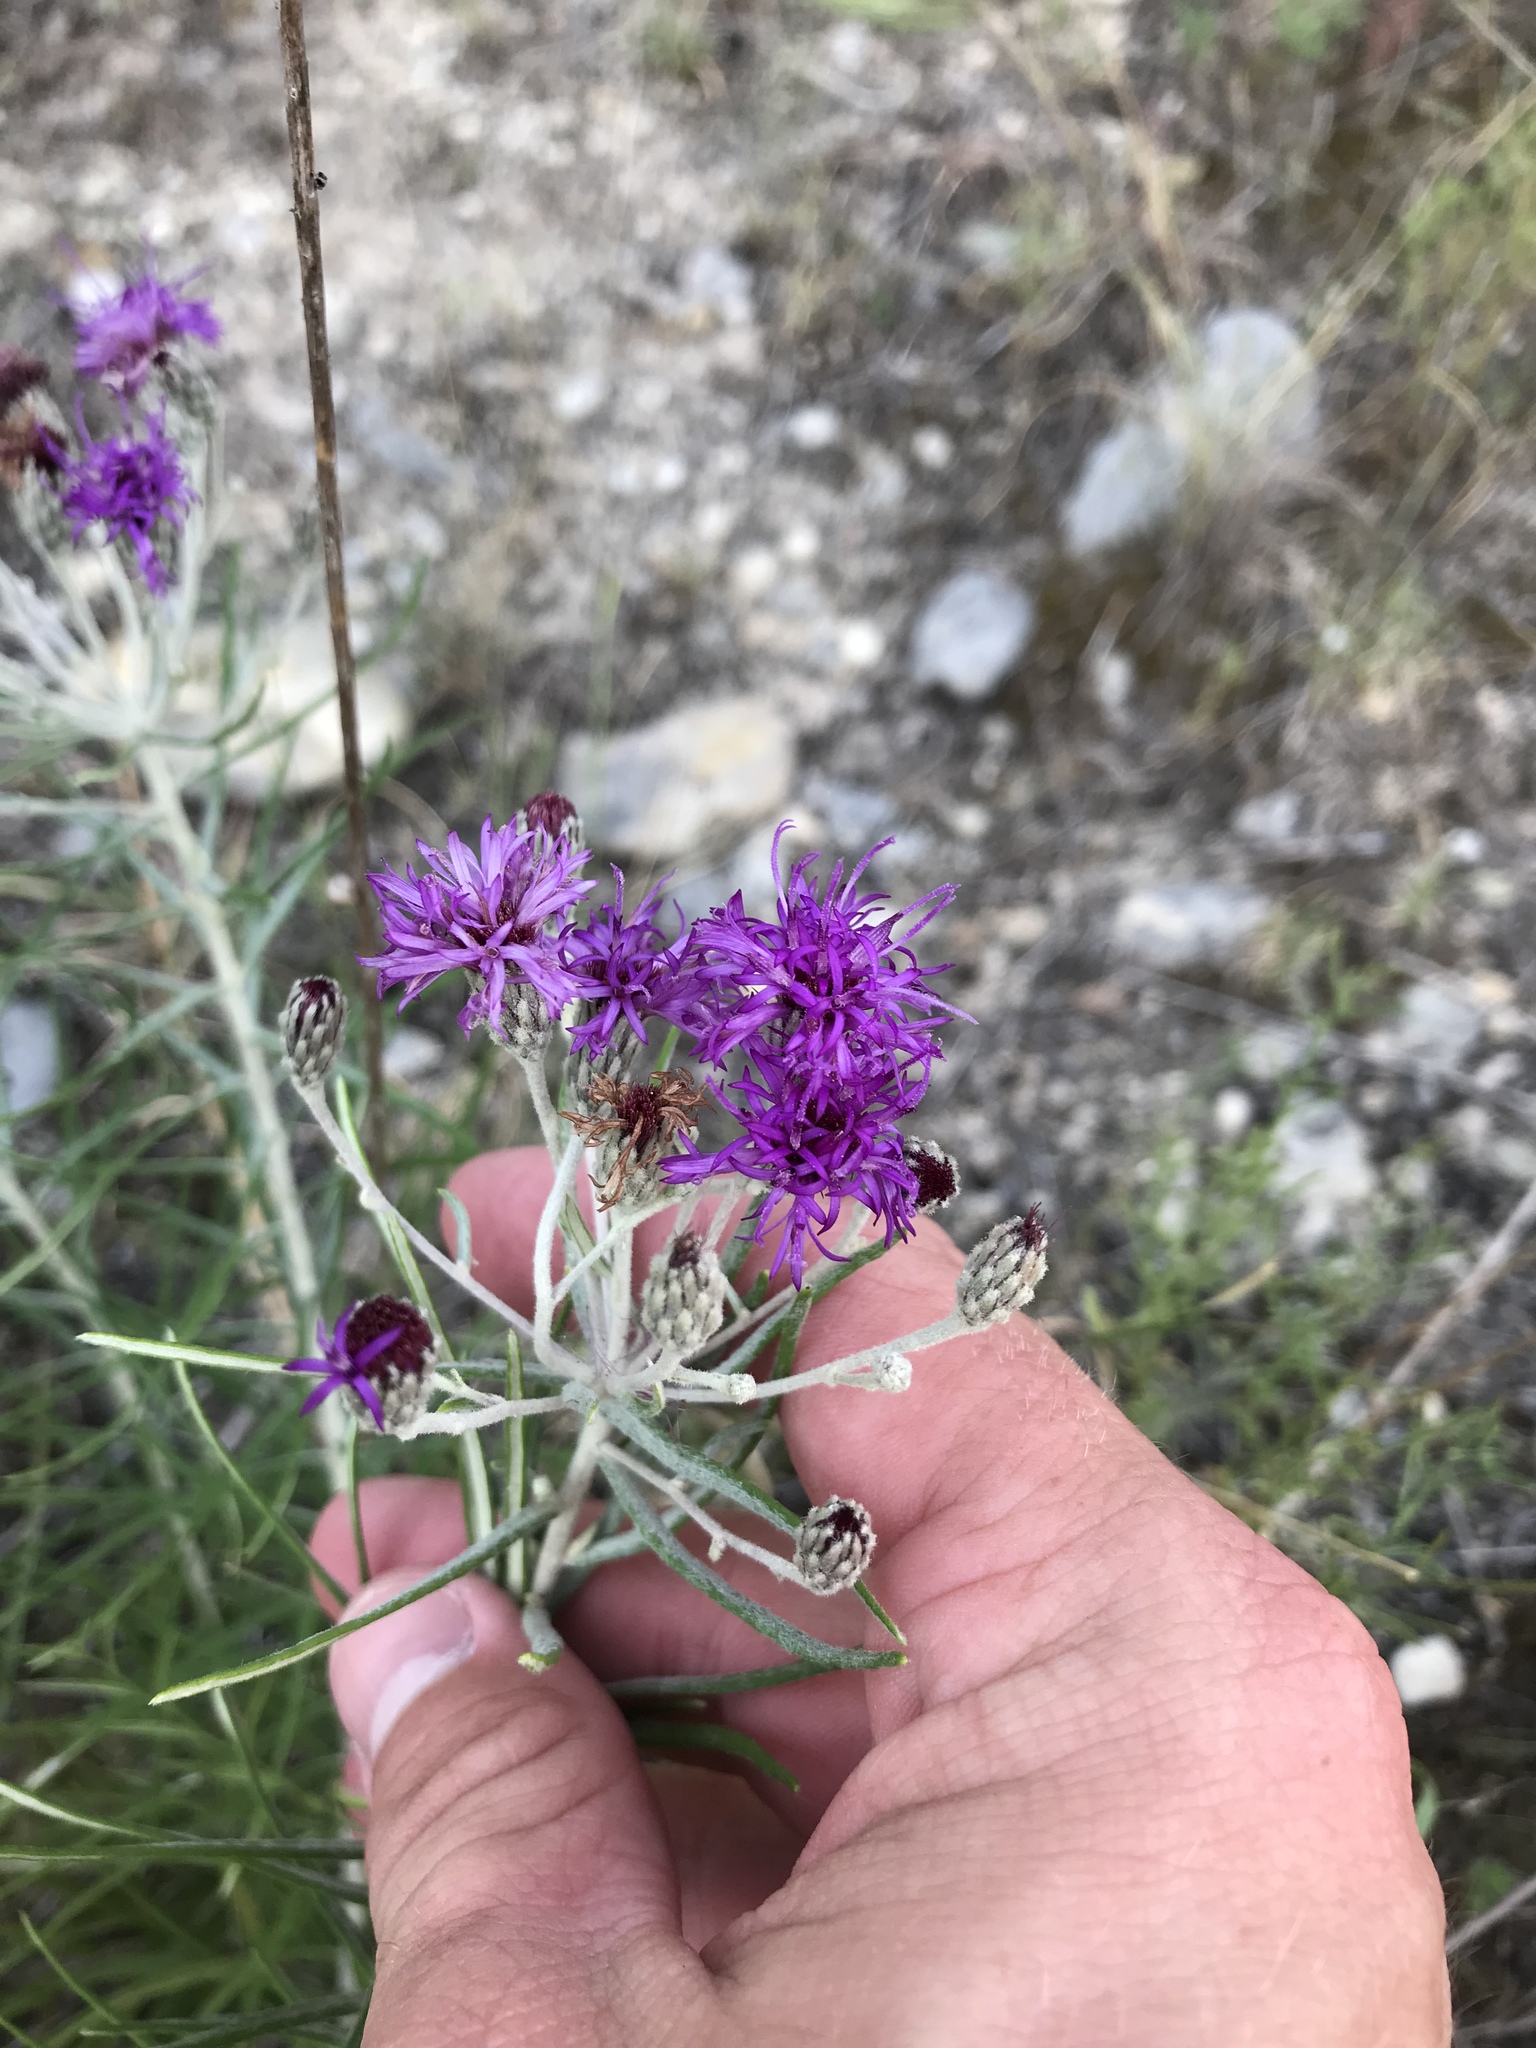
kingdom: Plantae
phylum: Tracheophyta
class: Magnoliopsida
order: Asterales
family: Asteraceae
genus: Vernonia
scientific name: Vernonia lindheimeri
